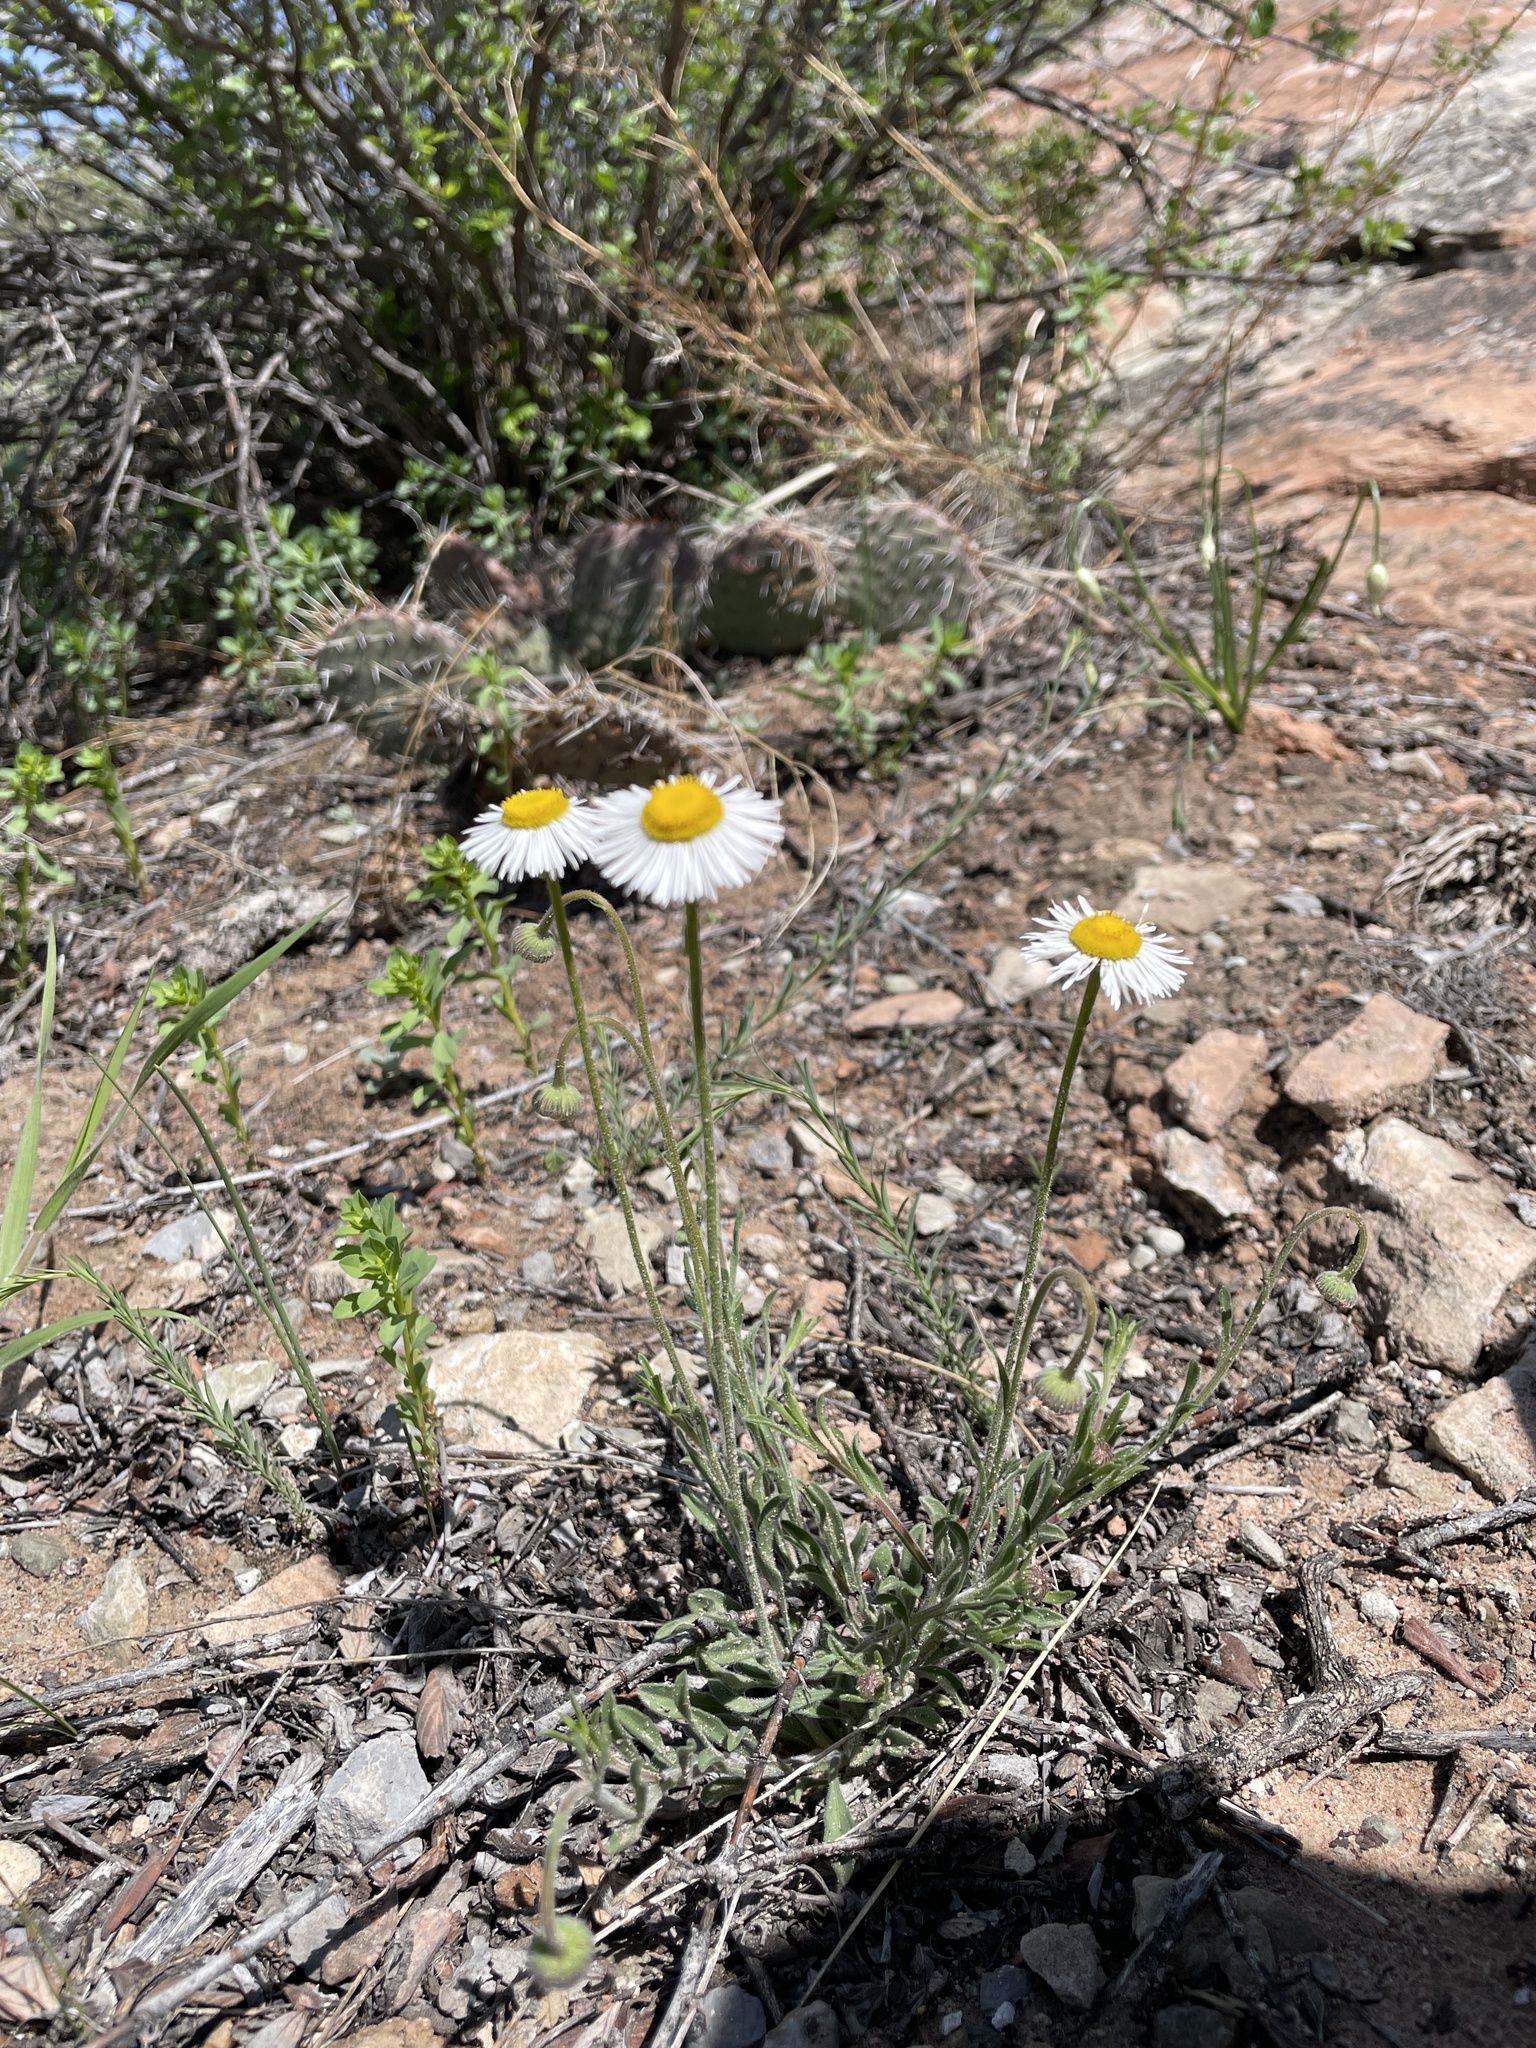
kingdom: Plantae
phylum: Tracheophyta
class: Magnoliopsida
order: Asterales
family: Asteraceae
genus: Erigeron
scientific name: Erigeron modestus
